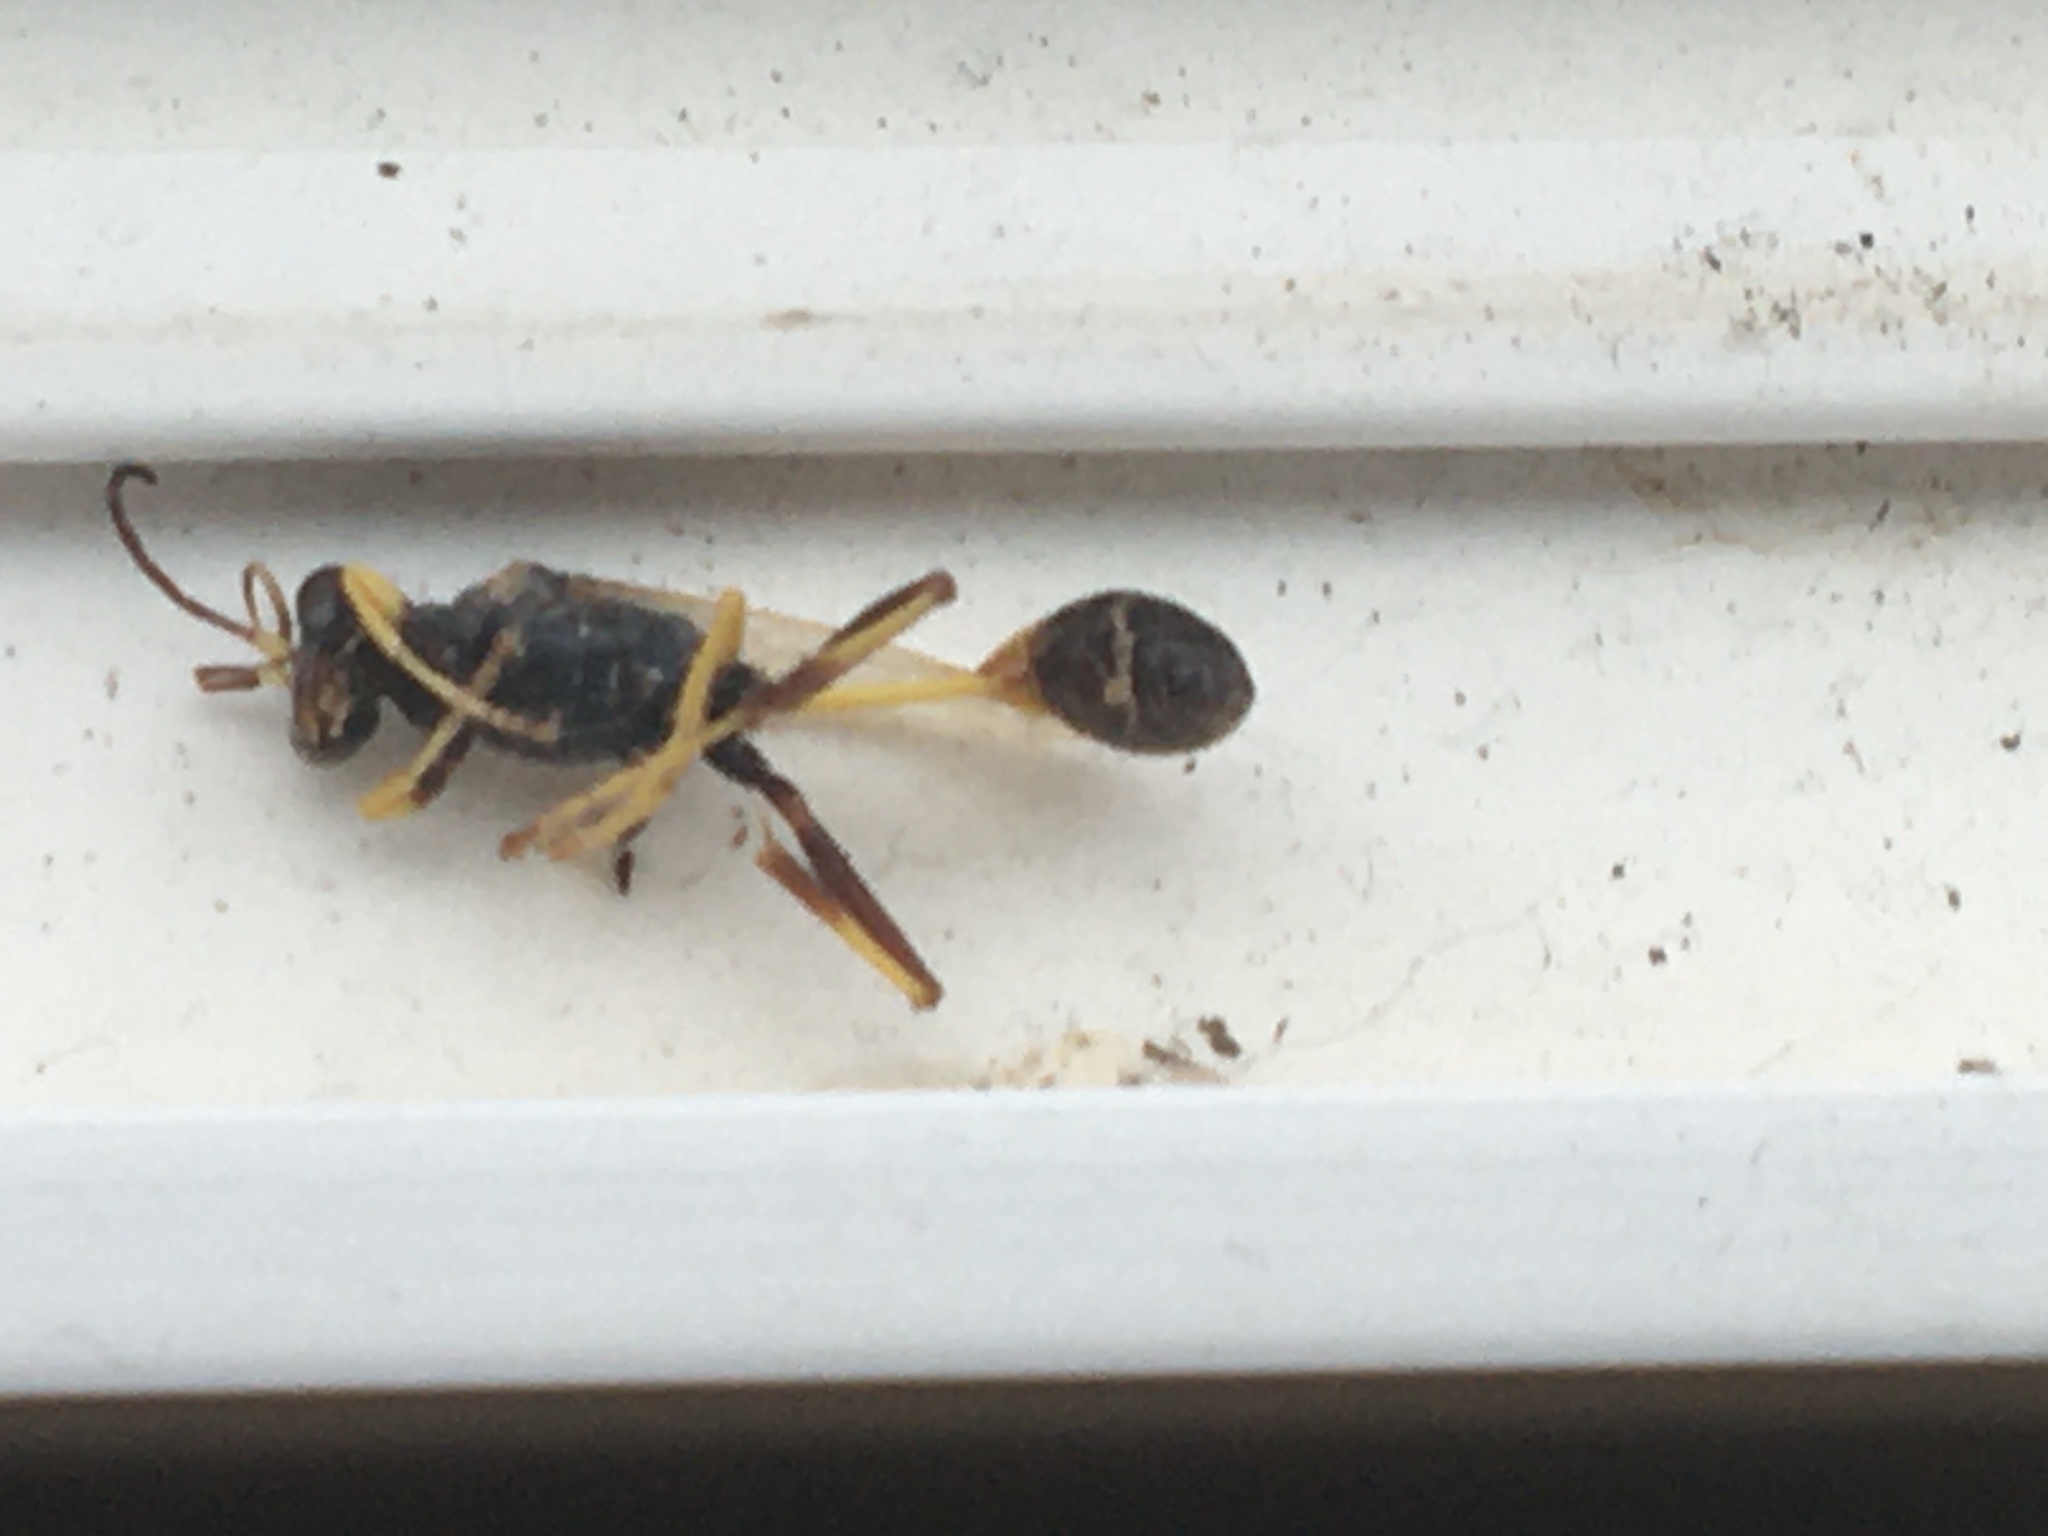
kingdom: Animalia
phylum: Arthropoda
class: Insecta
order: Hymenoptera
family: Sphecidae
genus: Sceliphron
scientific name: Sceliphron caementarium
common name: Mud dauber
